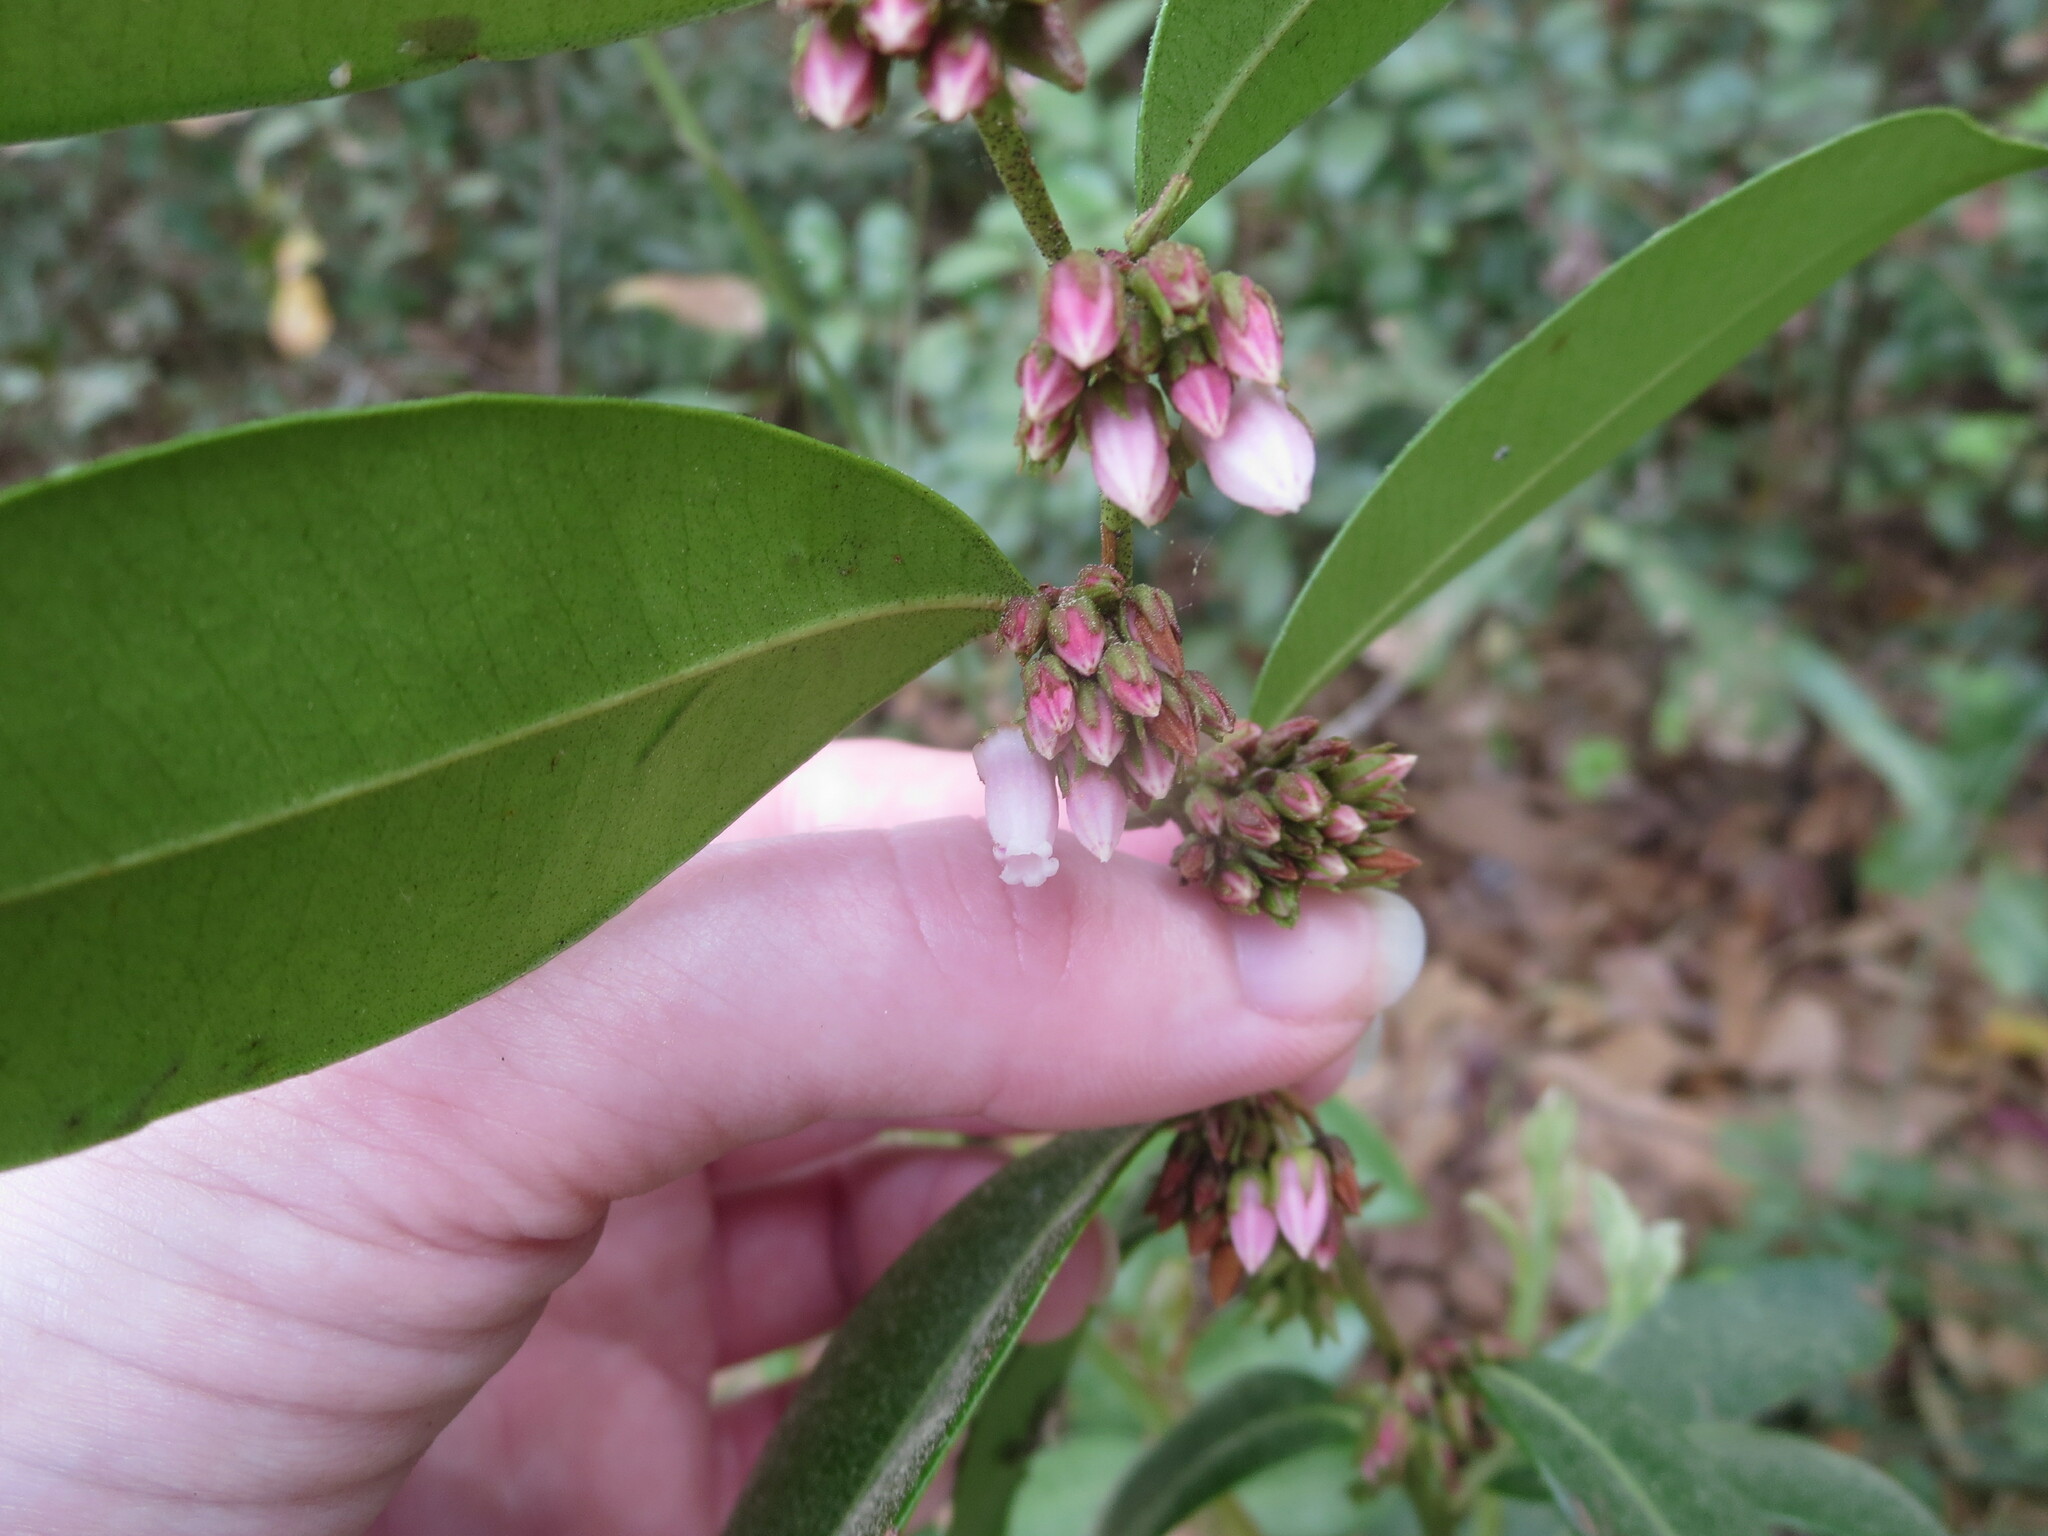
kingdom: Plantae
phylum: Tracheophyta
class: Magnoliopsida
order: Ericales
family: Ericaceae
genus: Lyonia
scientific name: Lyonia lucida
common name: Fetterbush
